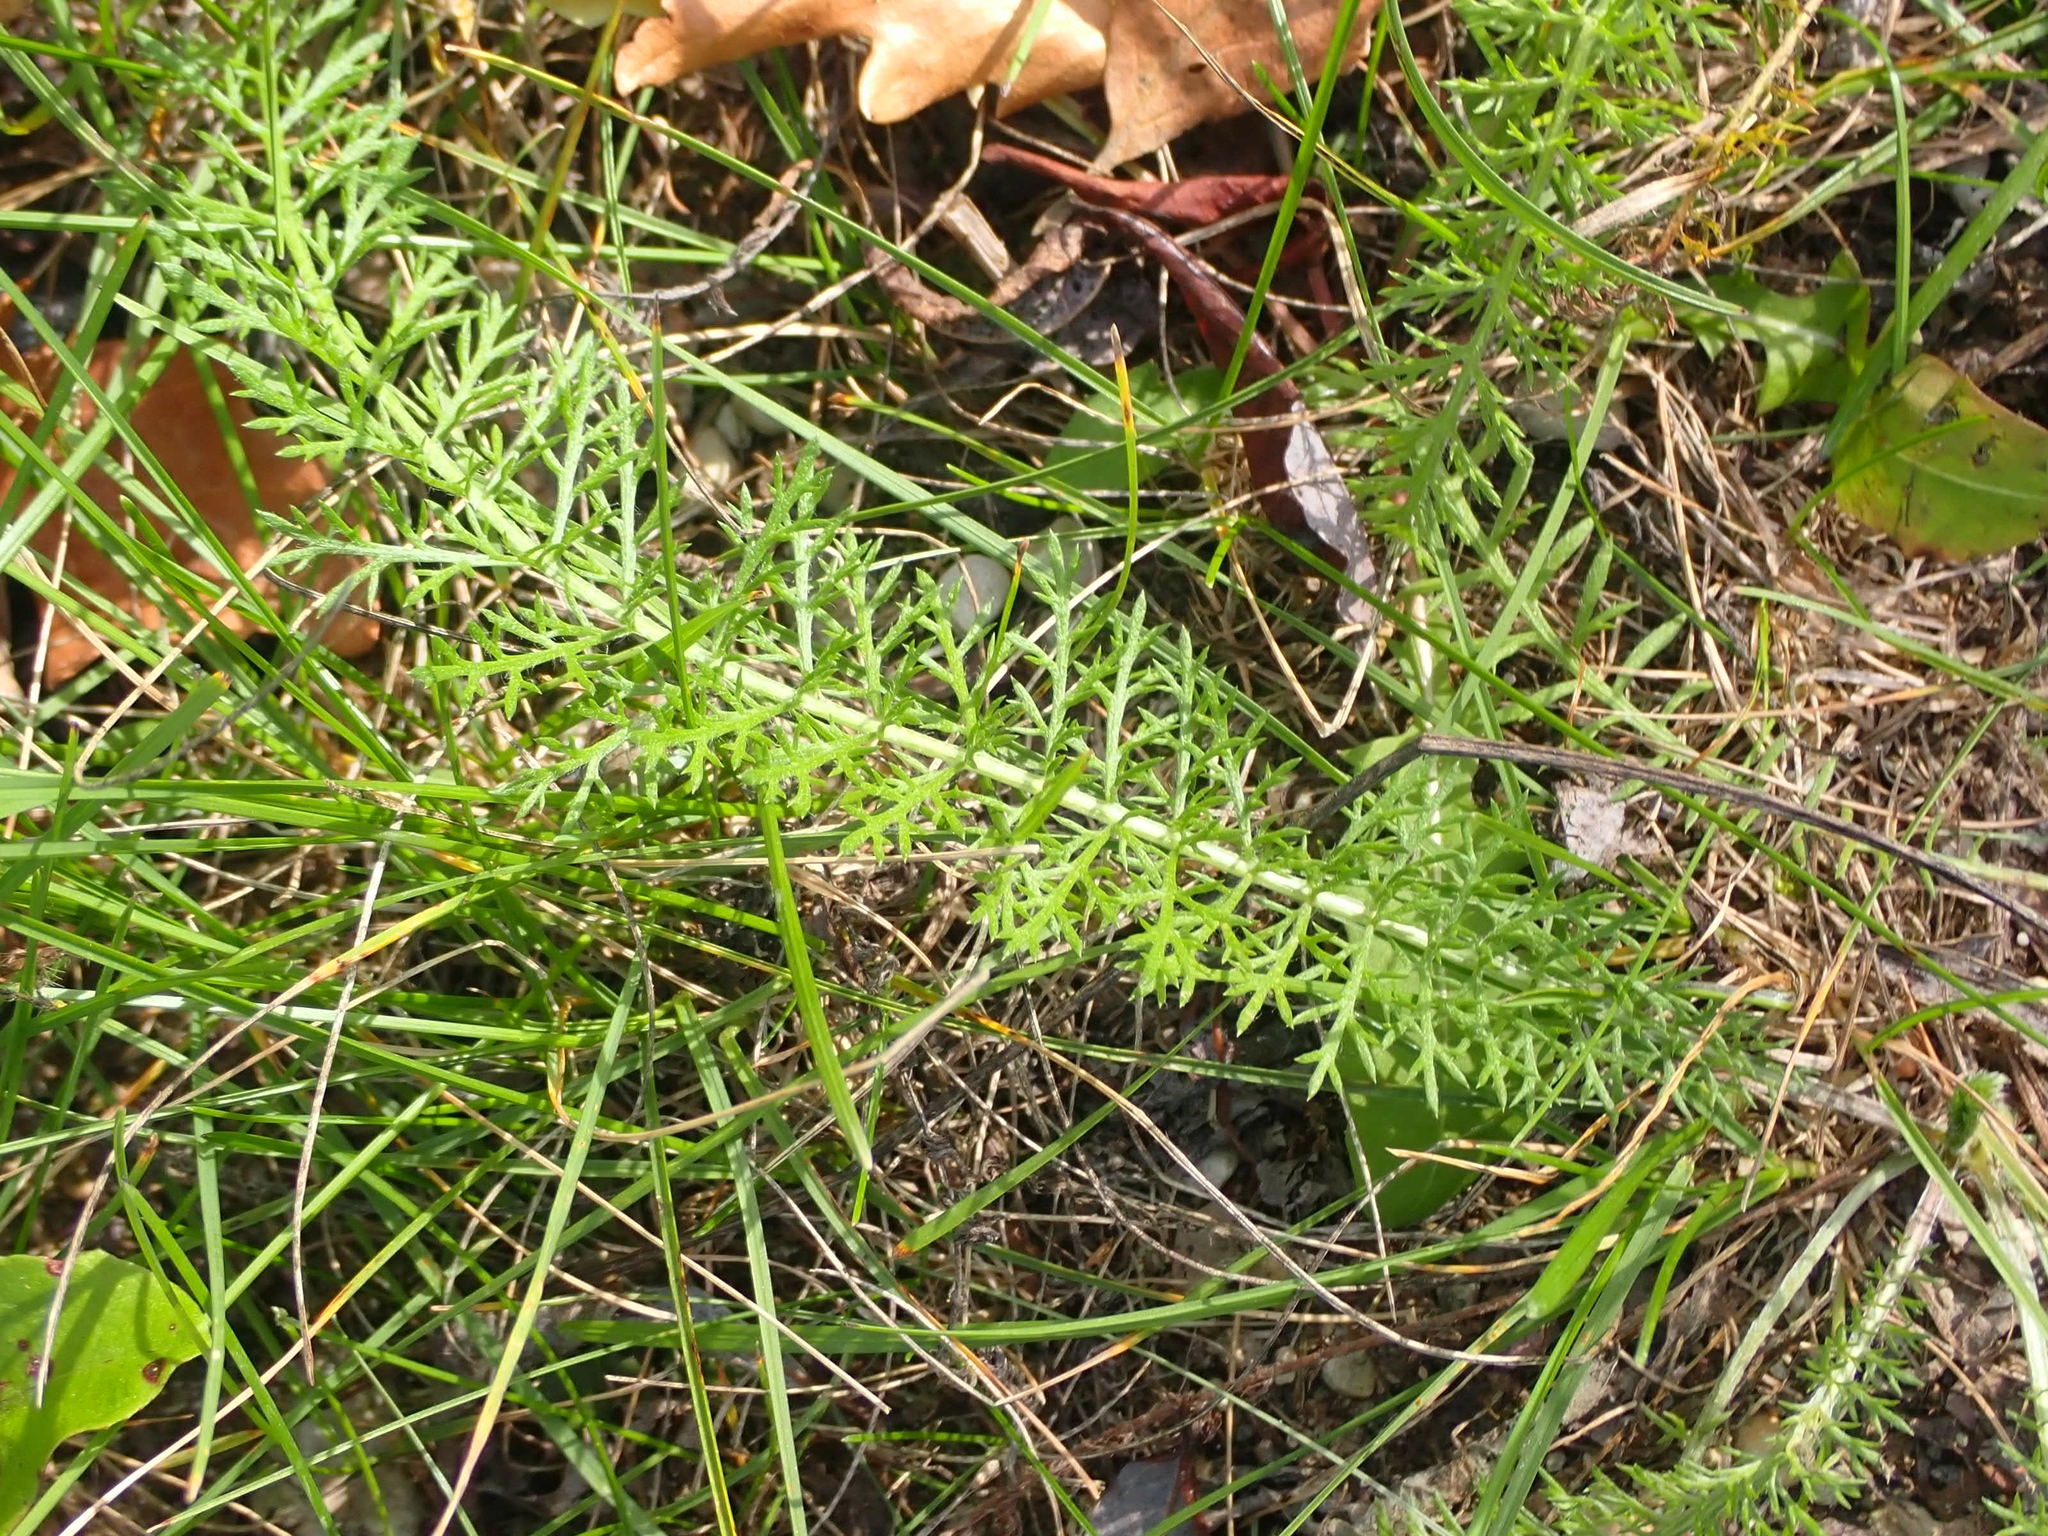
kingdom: Plantae
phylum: Tracheophyta
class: Magnoliopsida
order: Asterales
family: Asteraceae
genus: Achillea
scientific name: Achillea millefolium
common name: Yarrow
